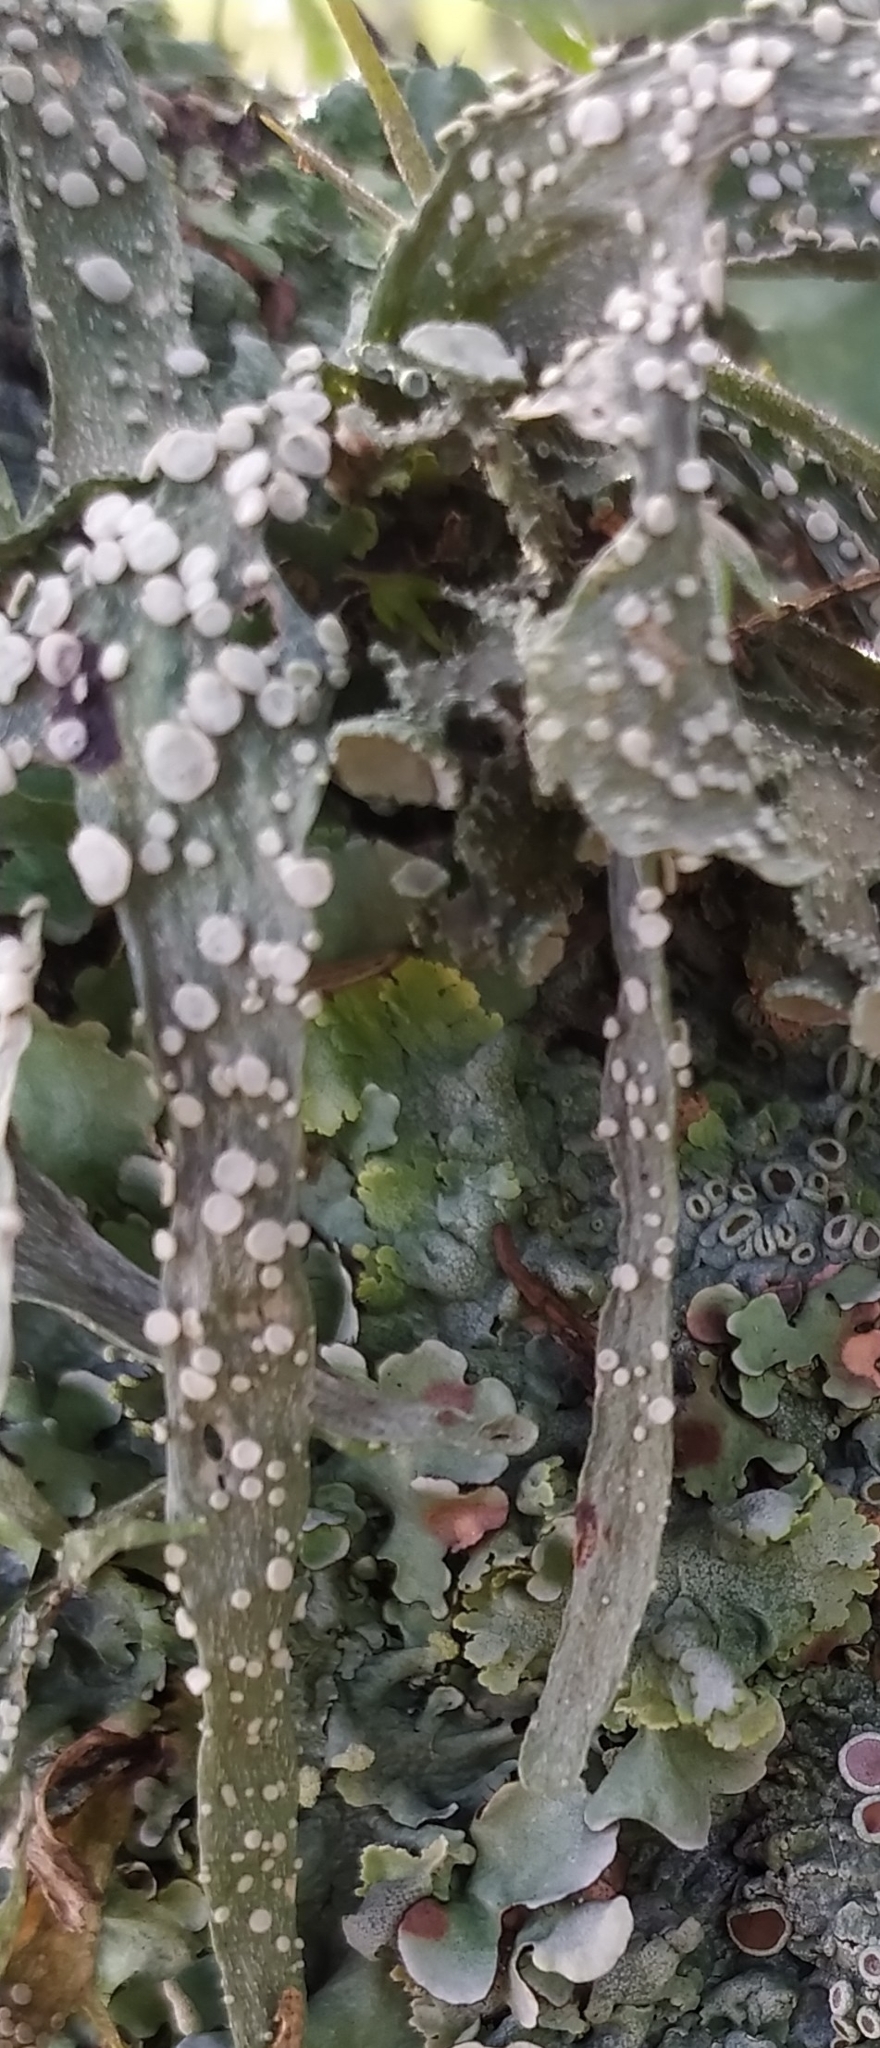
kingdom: Fungi
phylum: Ascomycota
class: Lecanoromycetes
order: Lecanorales
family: Ramalinaceae
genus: Ramalina
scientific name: Ramalina celastri
